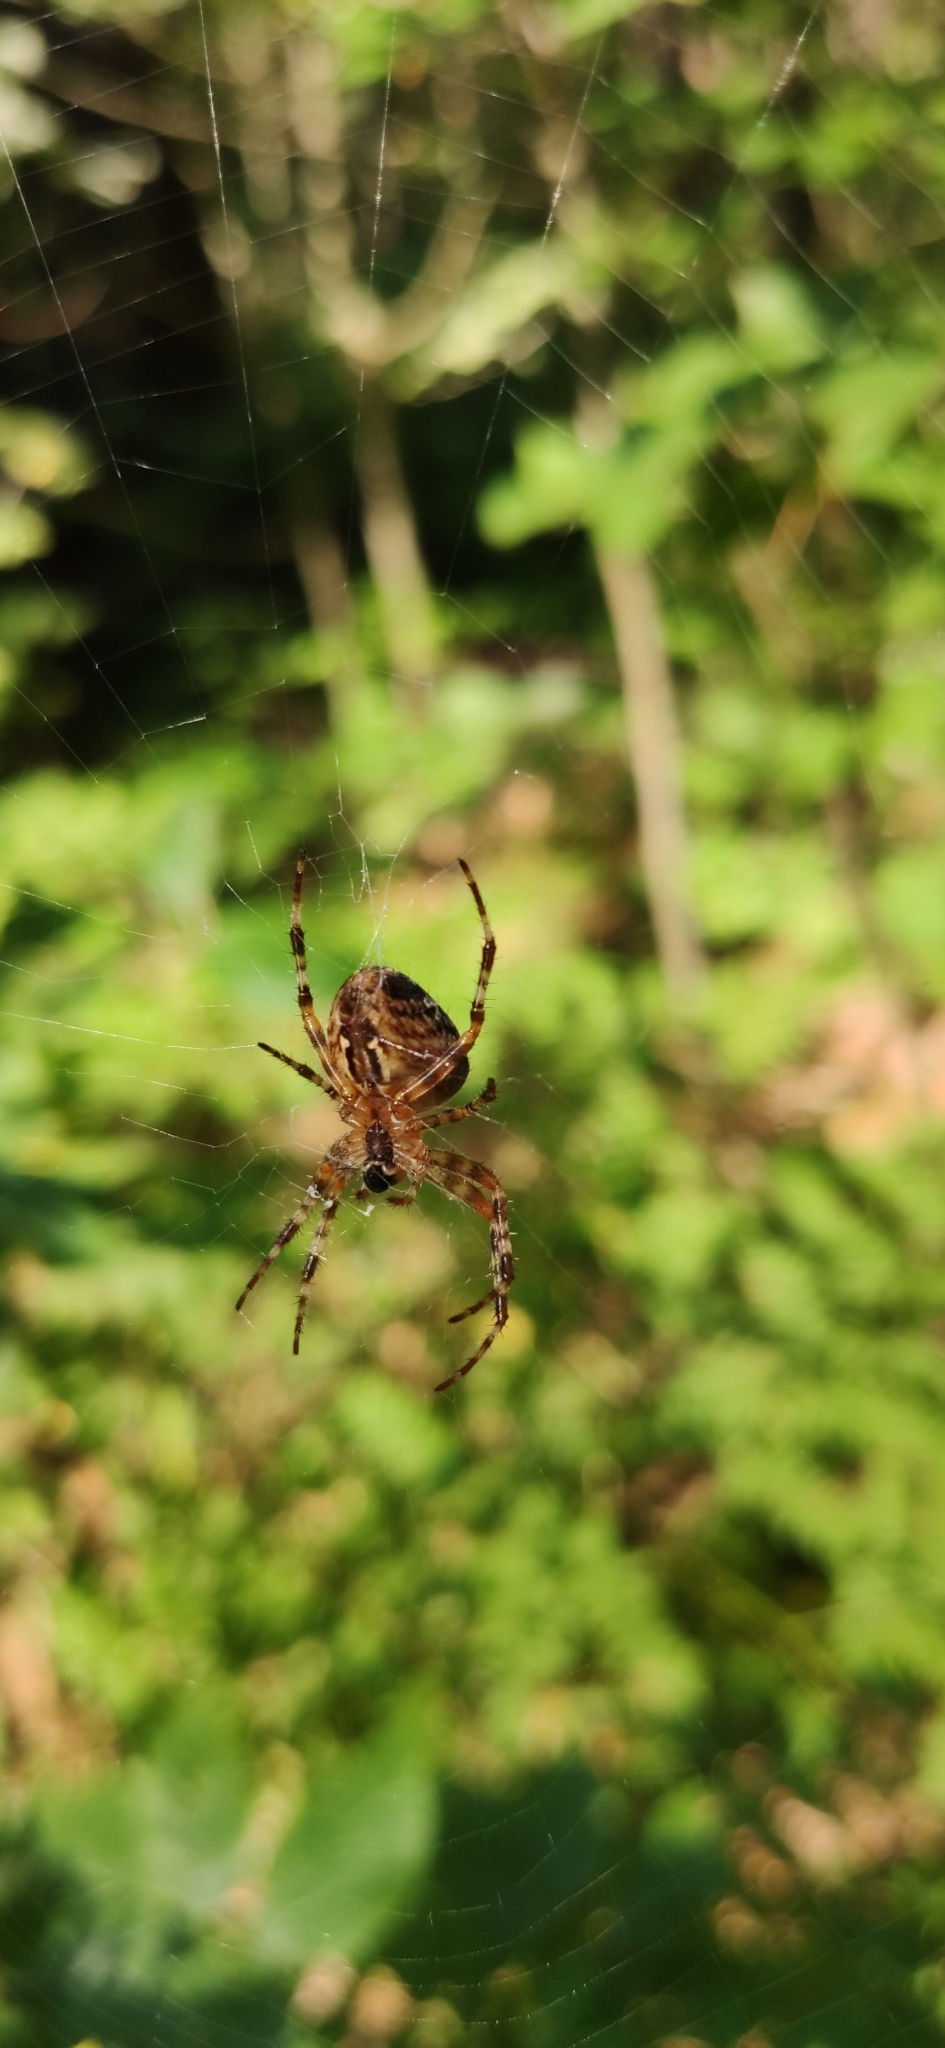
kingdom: Animalia
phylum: Arthropoda
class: Arachnida
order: Araneae
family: Araneidae
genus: Araneus
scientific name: Araneus diadematus
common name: Cross orbweaver
